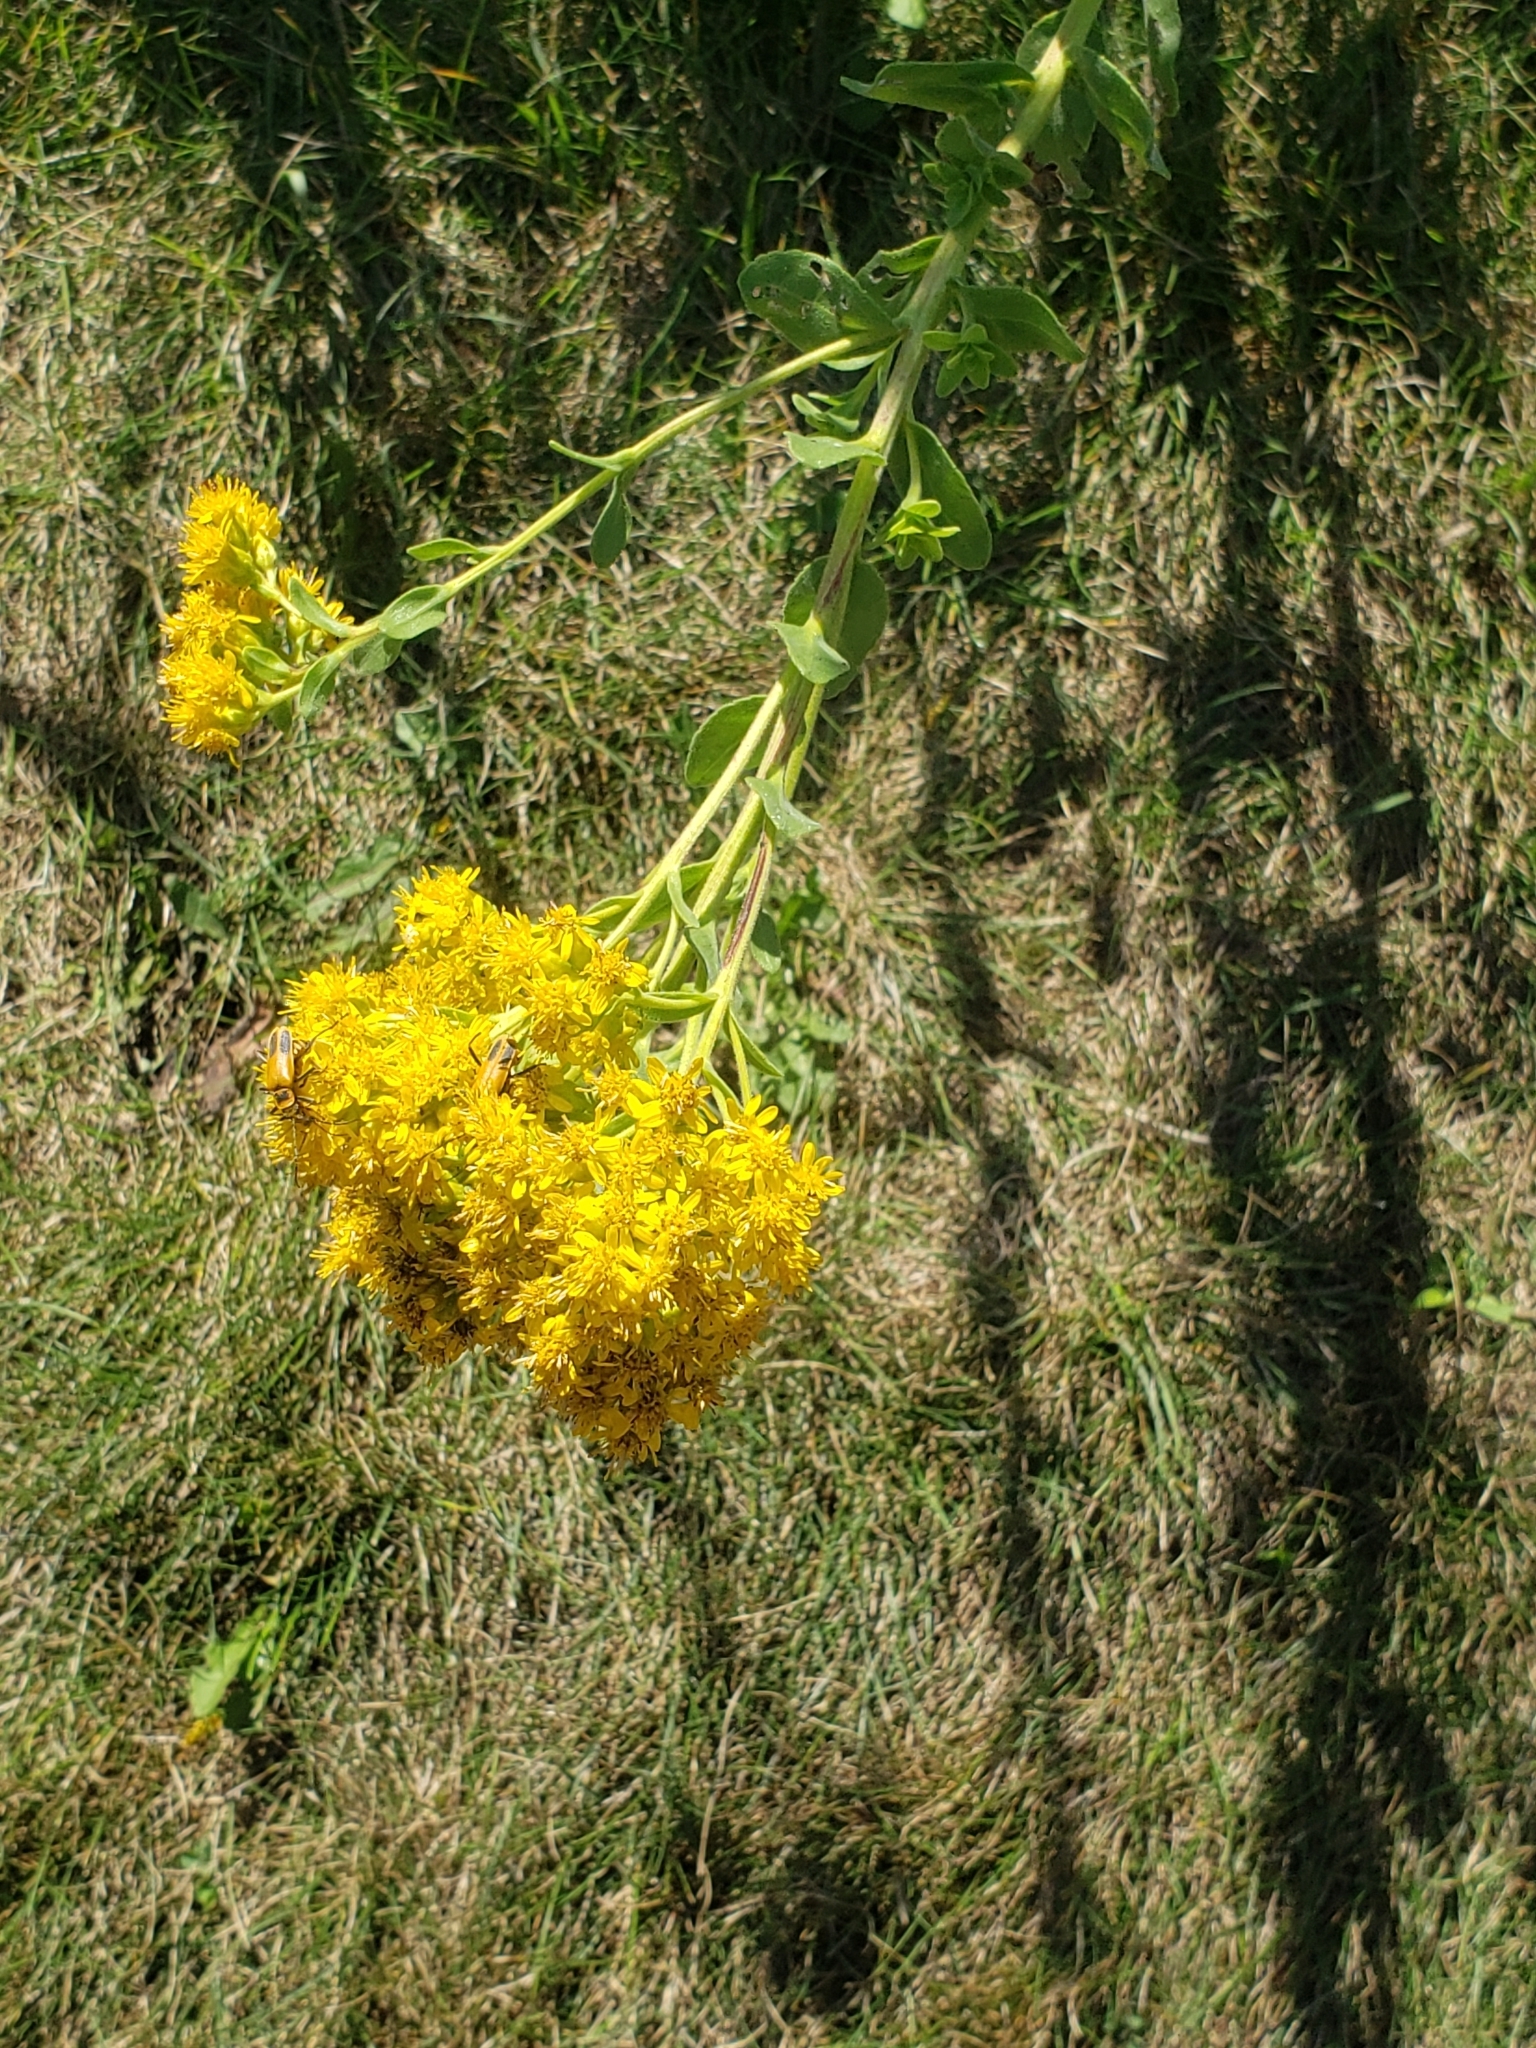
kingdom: Animalia
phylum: Arthropoda
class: Insecta
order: Coleoptera
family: Cantharidae
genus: Chauliognathus
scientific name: Chauliognathus pensylvanicus
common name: Goldenrod soldier beetle
